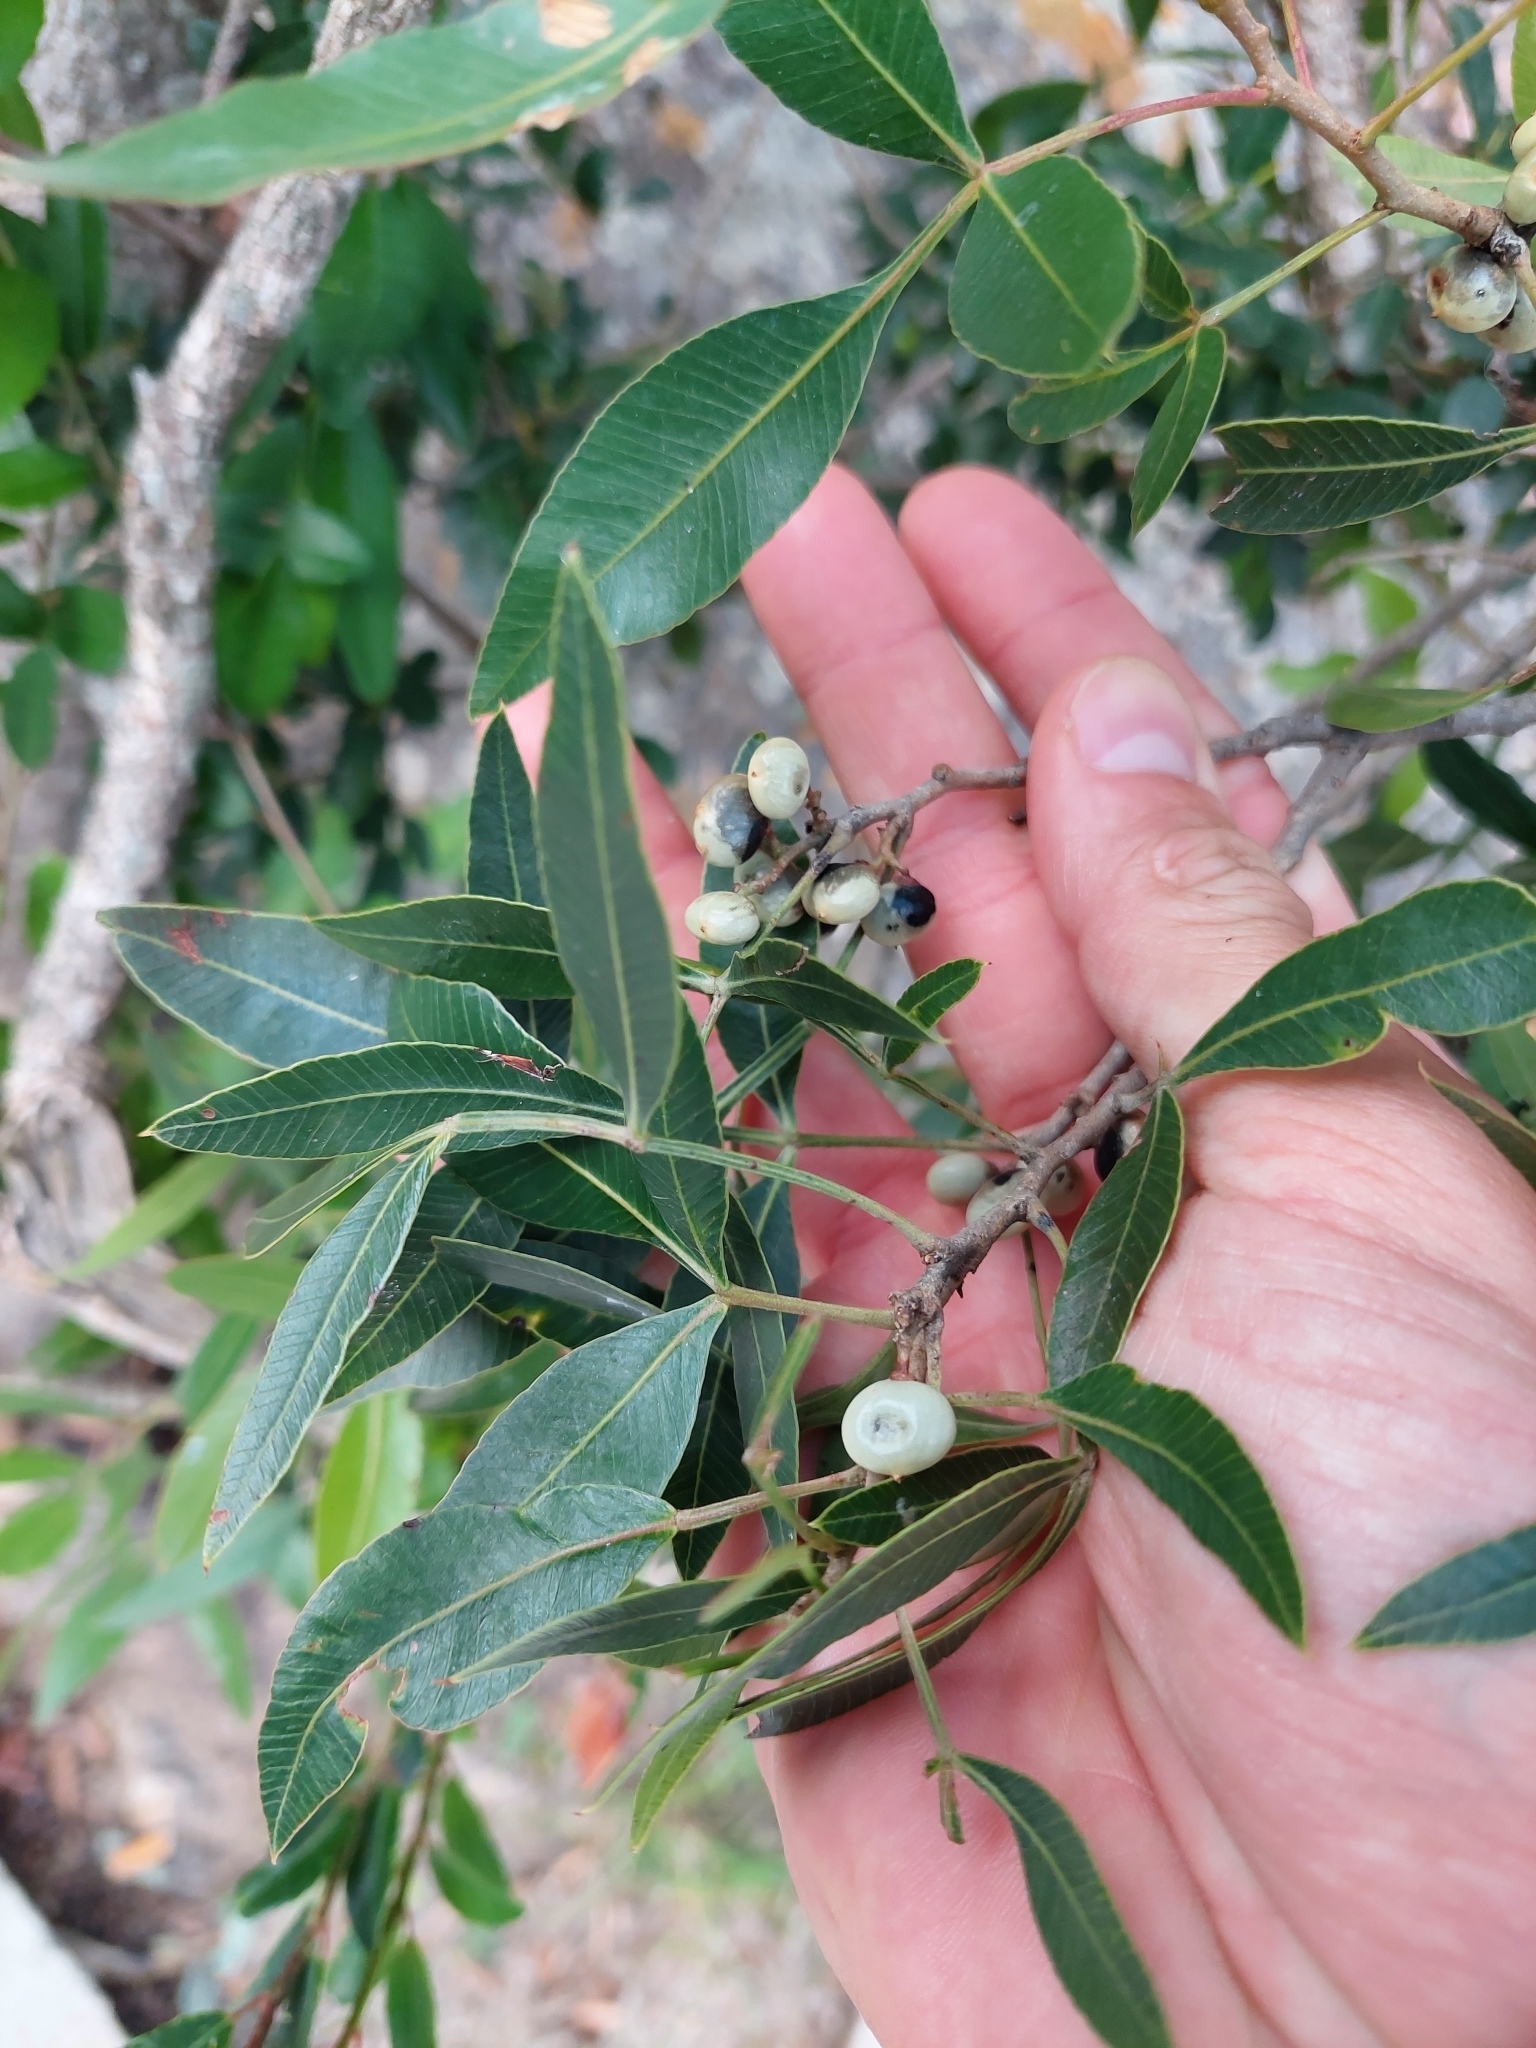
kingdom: Plantae
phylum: Tracheophyta
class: Magnoliopsida
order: Sapindales
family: Anacardiaceae
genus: Lithraea
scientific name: Lithraea molleoides
